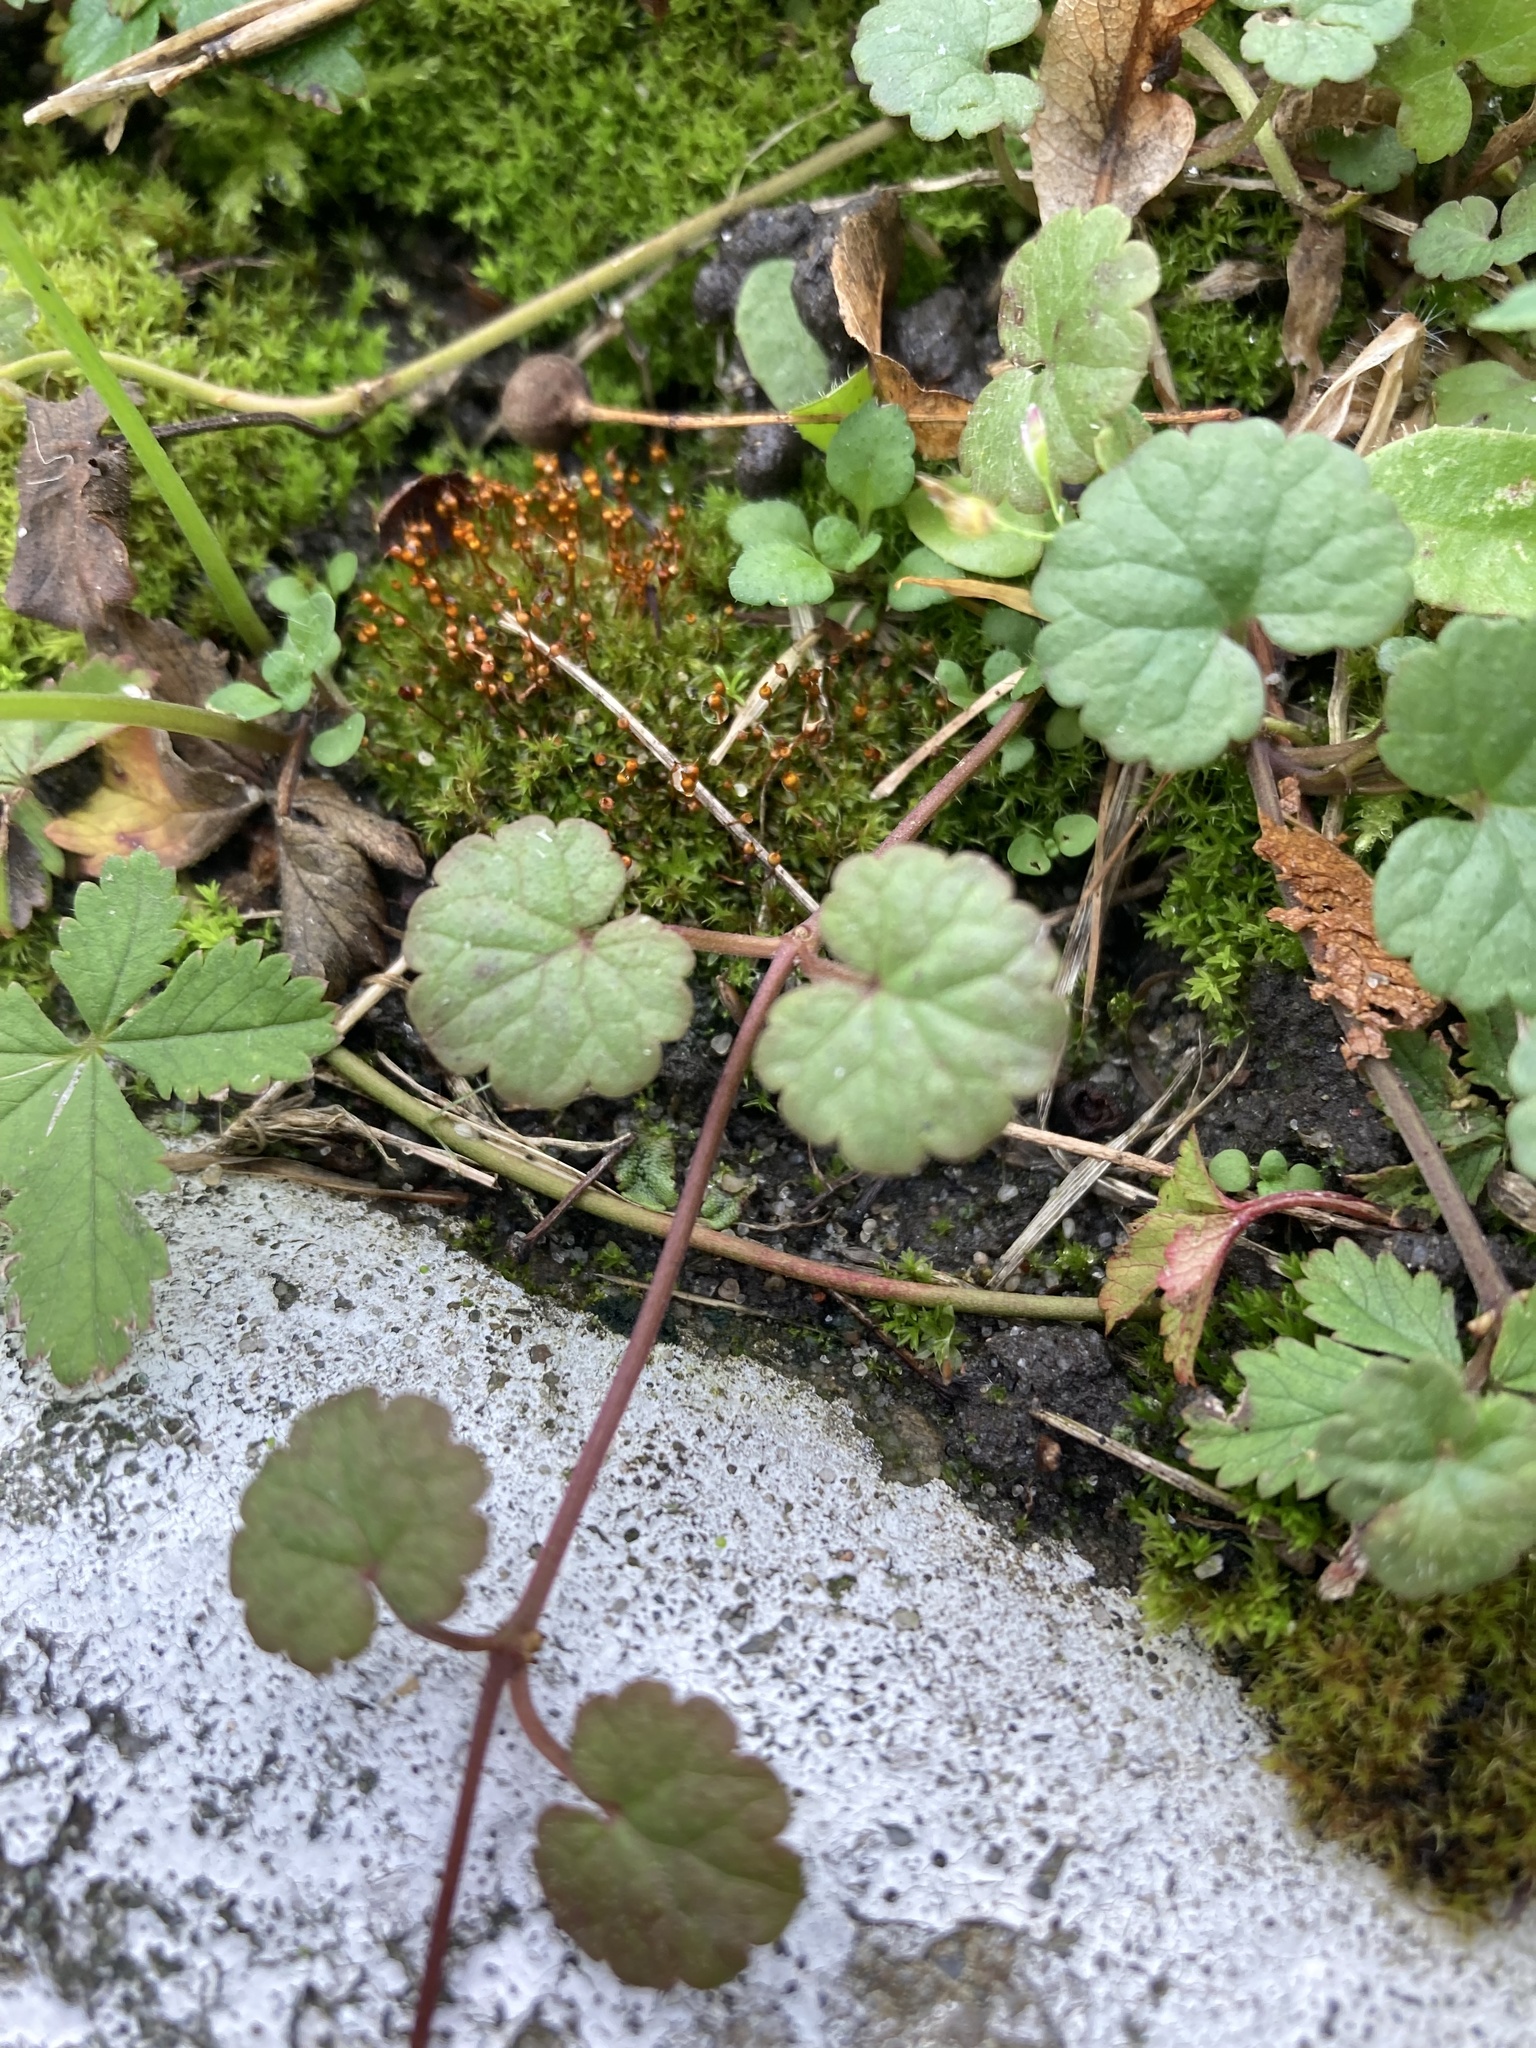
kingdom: Plantae
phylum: Tracheophyta
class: Magnoliopsida
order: Lamiales
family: Lamiaceae
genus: Glechoma
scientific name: Glechoma hederacea
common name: Ground ivy
